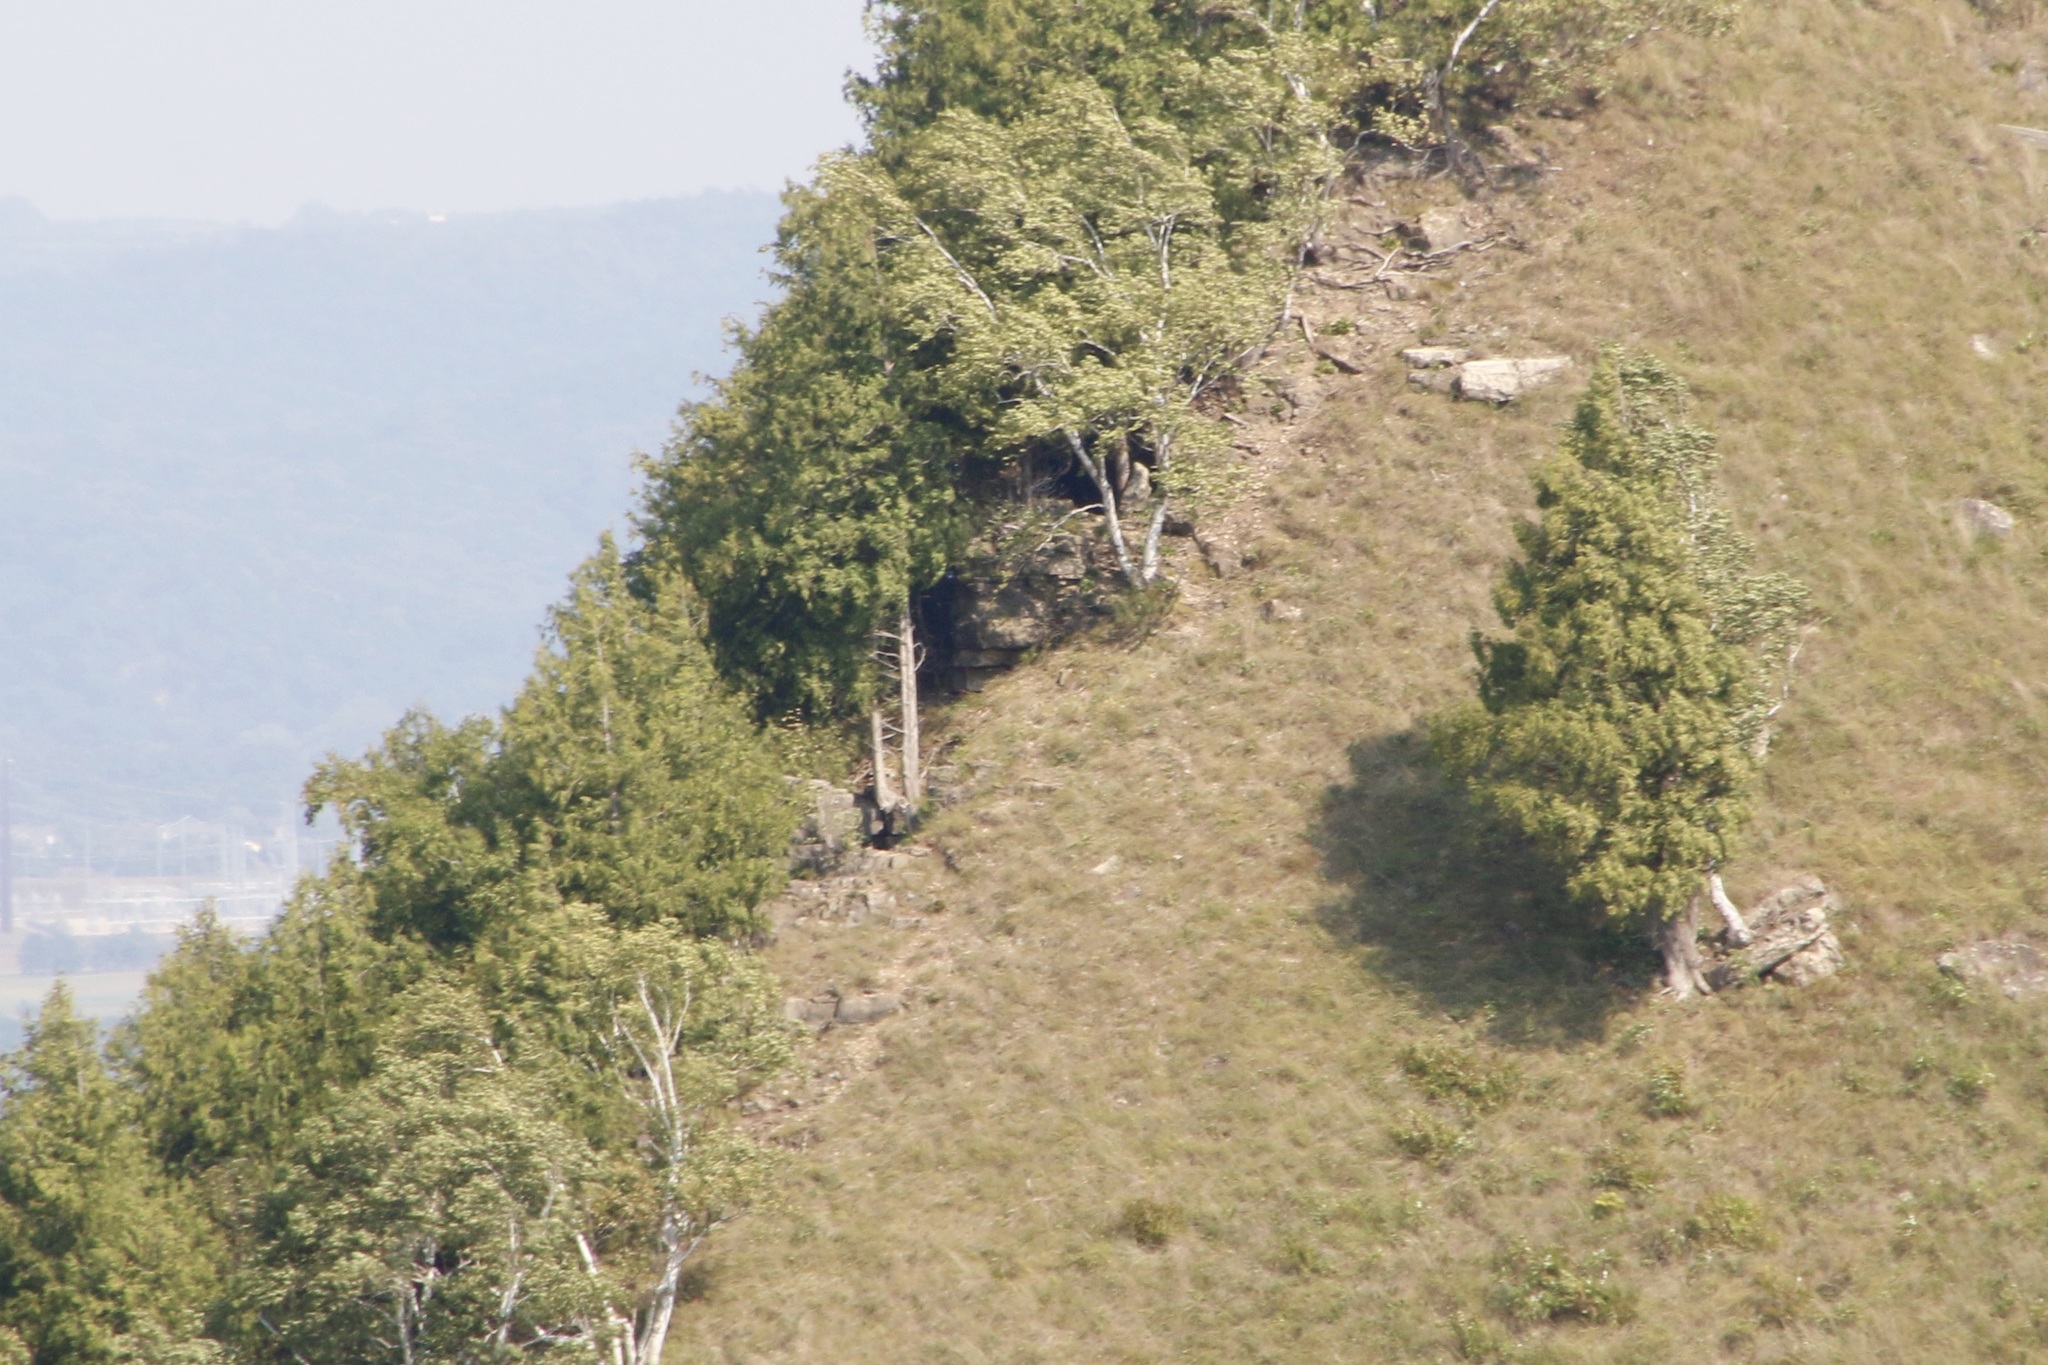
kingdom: Plantae
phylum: Tracheophyta
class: Pinopsida
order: Pinales
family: Cupressaceae
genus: Thuja
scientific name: Thuja occidentalis
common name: Northern white-cedar
